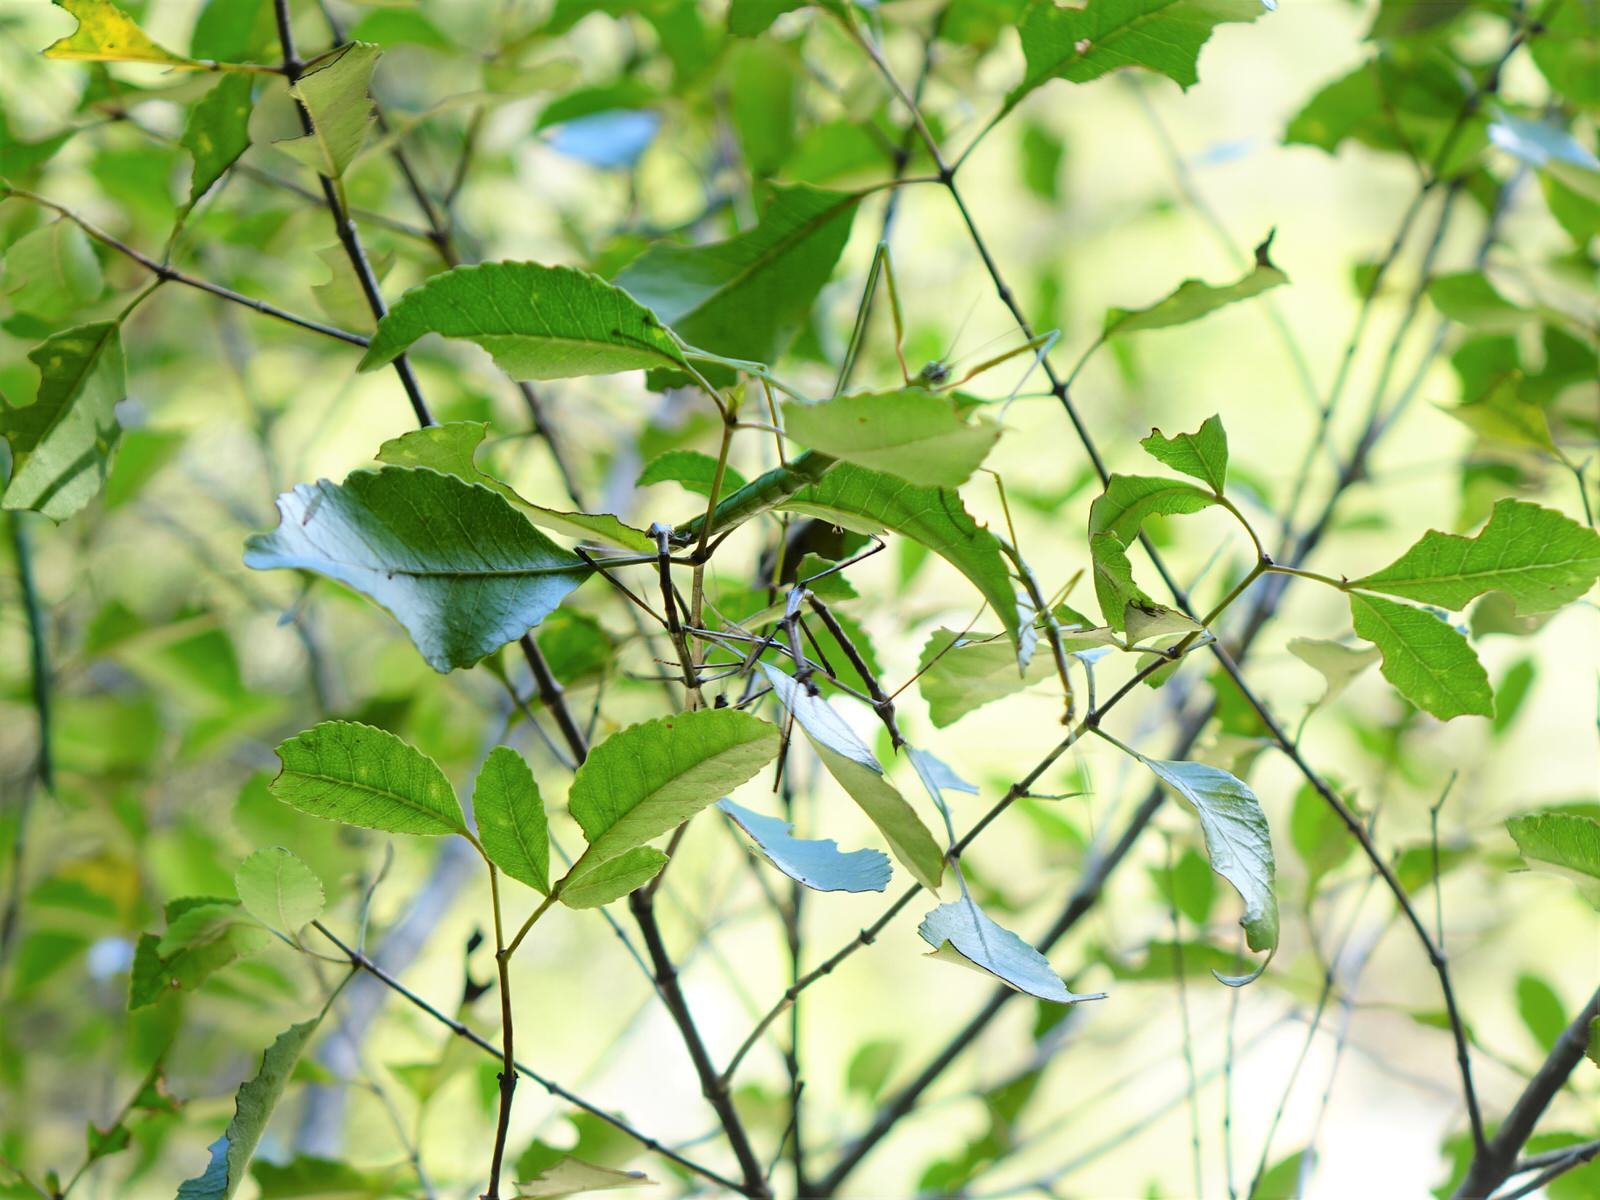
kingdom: Animalia
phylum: Arthropoda
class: Insecta
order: Phasmida
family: Phasmatidae
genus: Clitarchus
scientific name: Clitarchus hookeri
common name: Smooth stick insect
